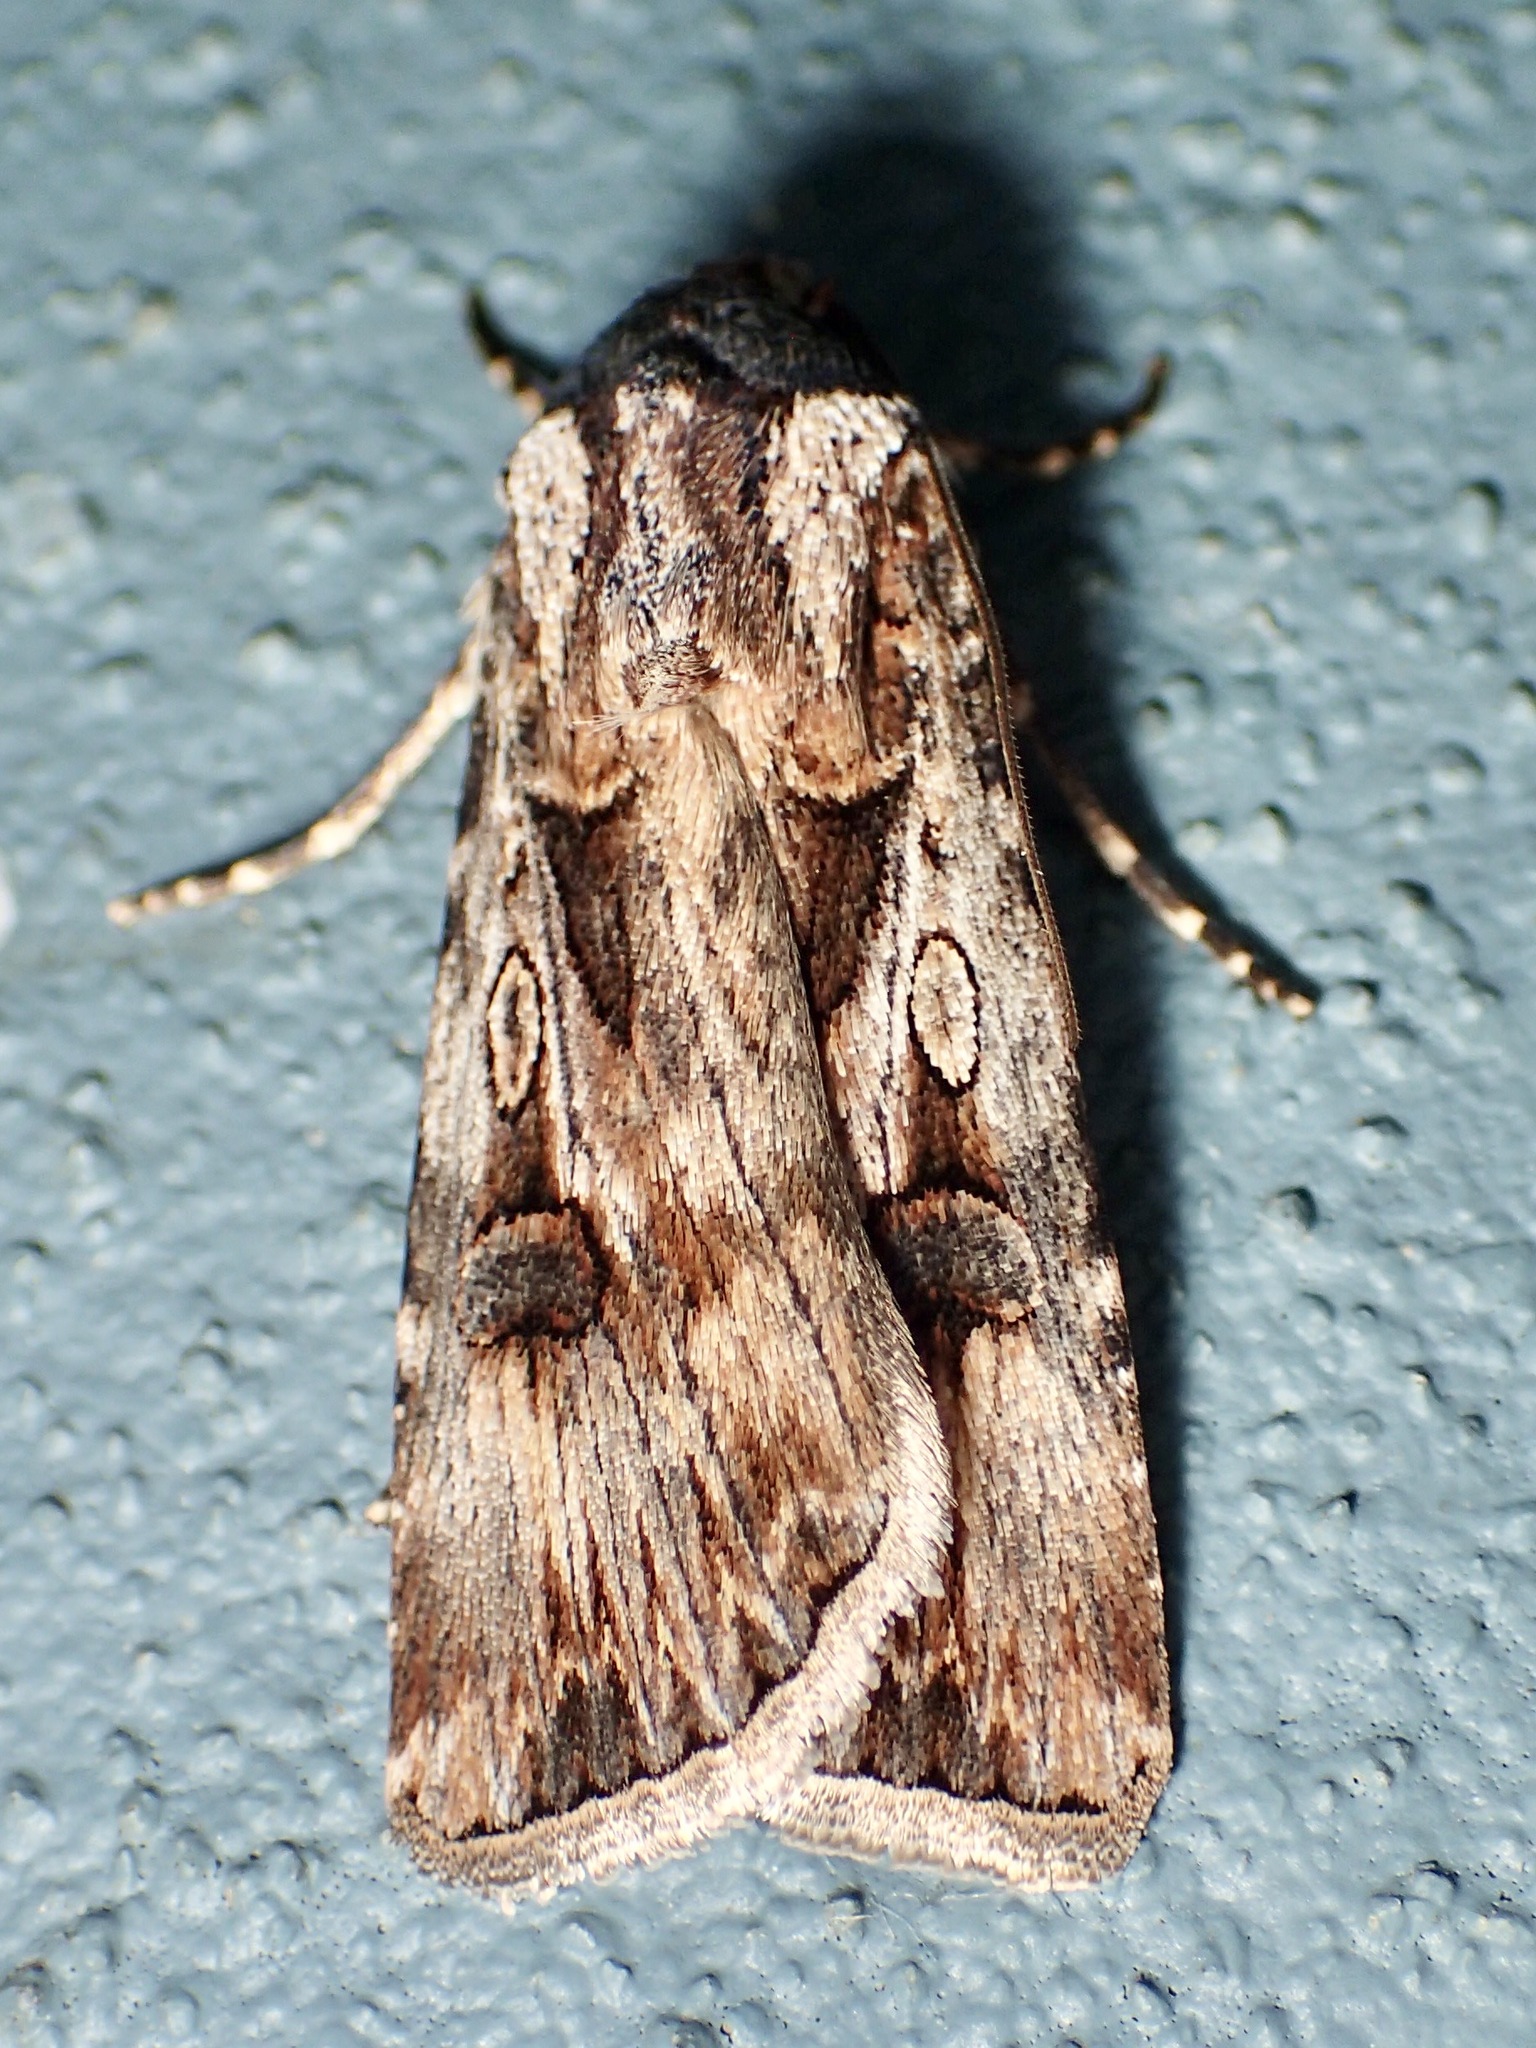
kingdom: Animalia
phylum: Arthropoda
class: Insecta
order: Lepidoptera
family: Noctuidae
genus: Agrotis
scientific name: Agrotis munda
